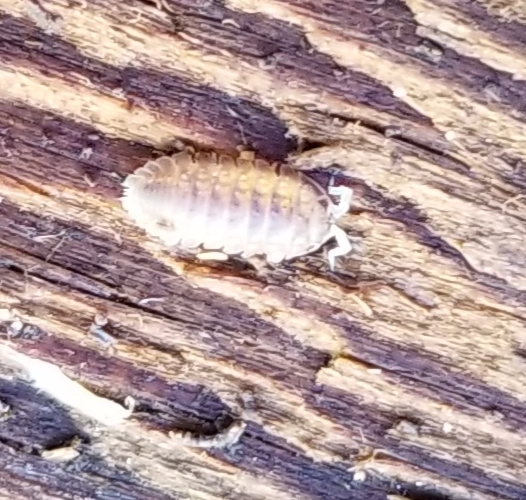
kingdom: Animalia
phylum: Arthropoda
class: Malacostraca
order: Isopoda
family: Detonidae
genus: Armadilloniscus
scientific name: Armadilloniscus lindahli
